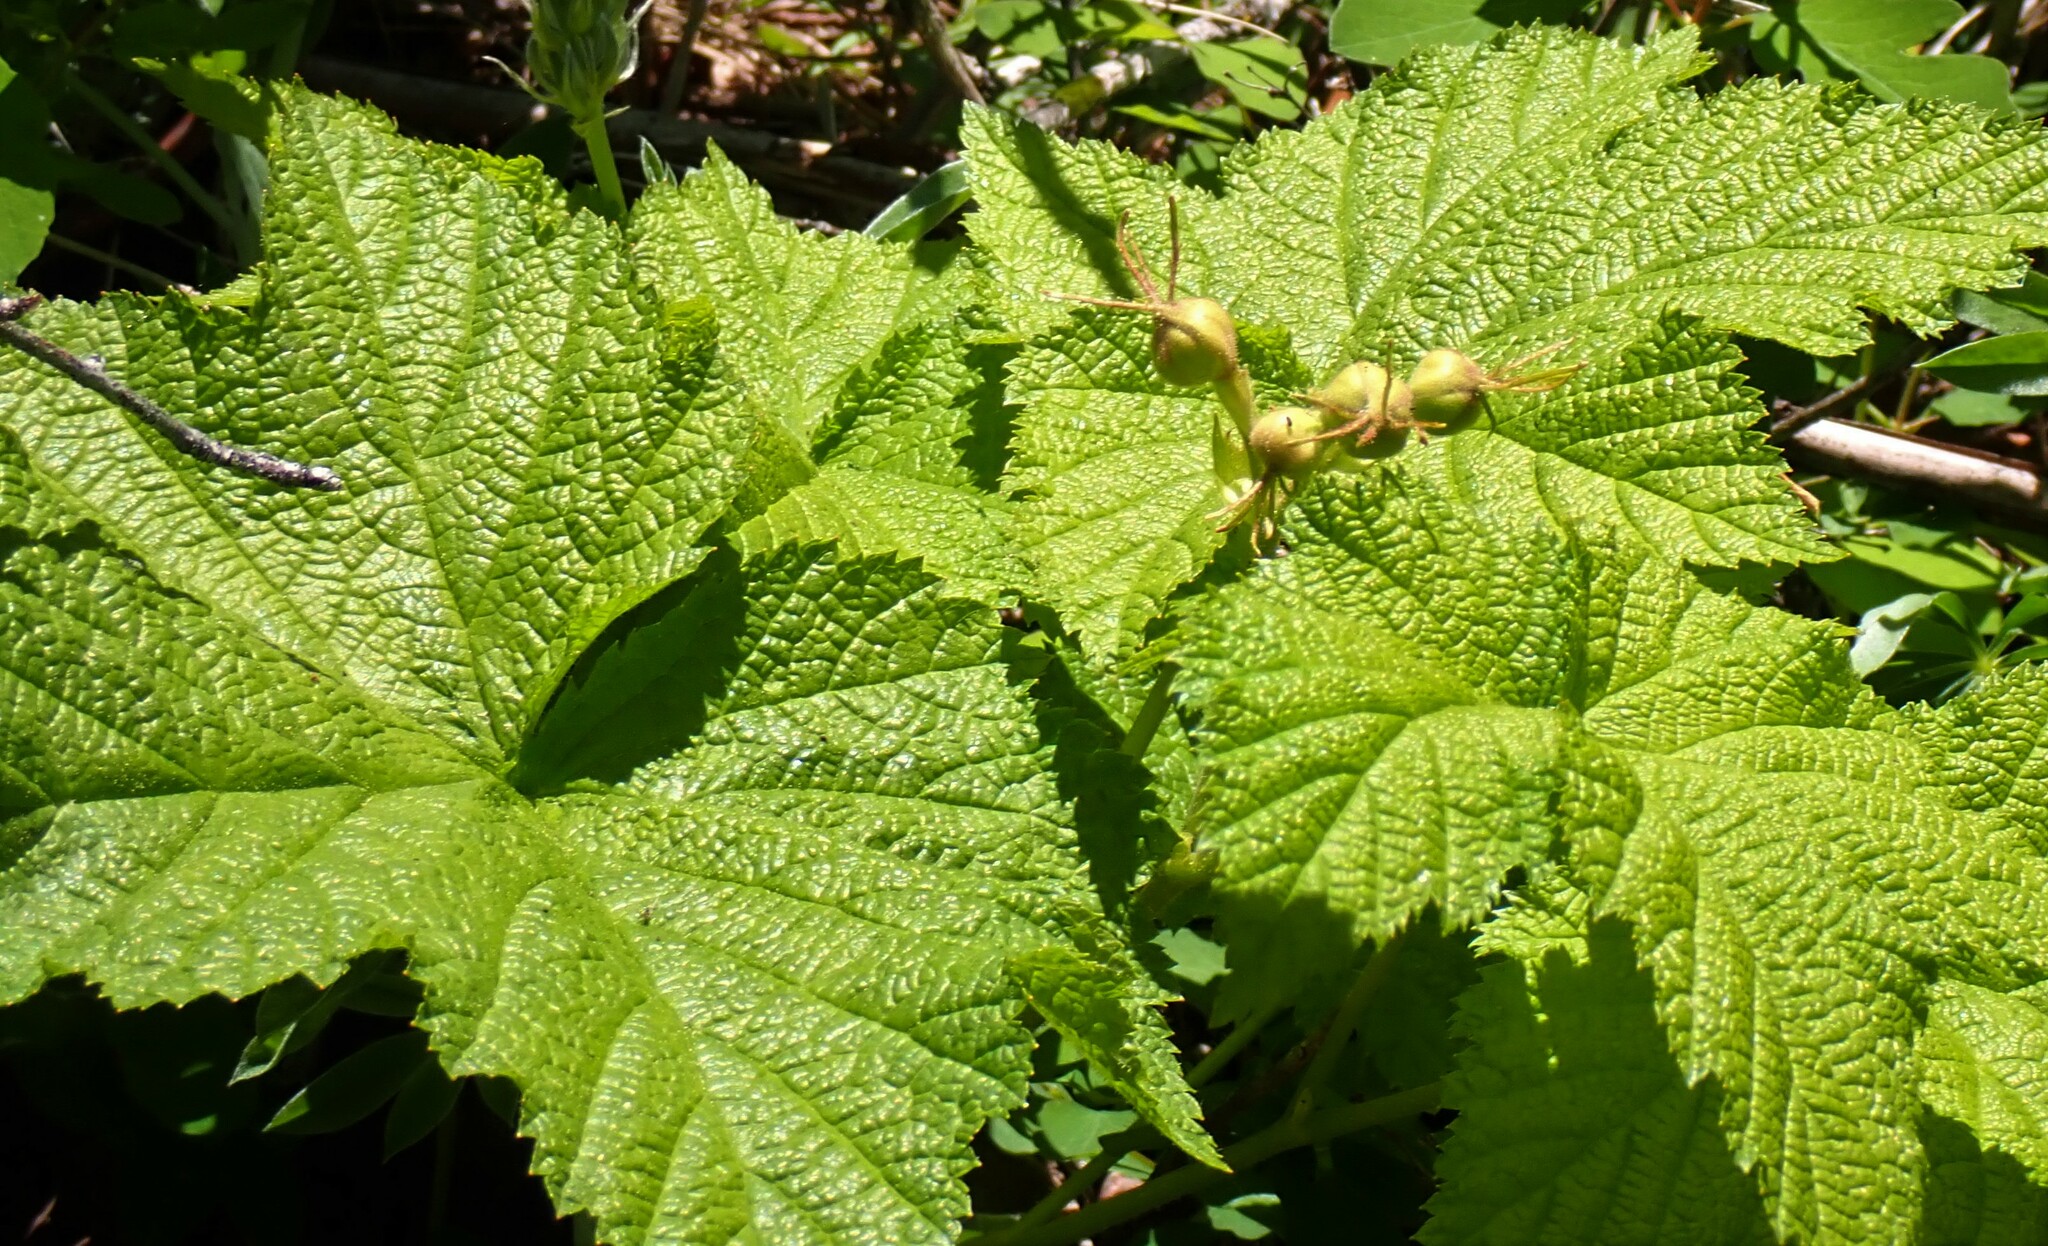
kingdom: Plantae
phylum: Tracheophyta
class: Magnoliopsida
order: Rosales
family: Rosaceae
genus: Rubus
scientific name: Rubus parviflorus
